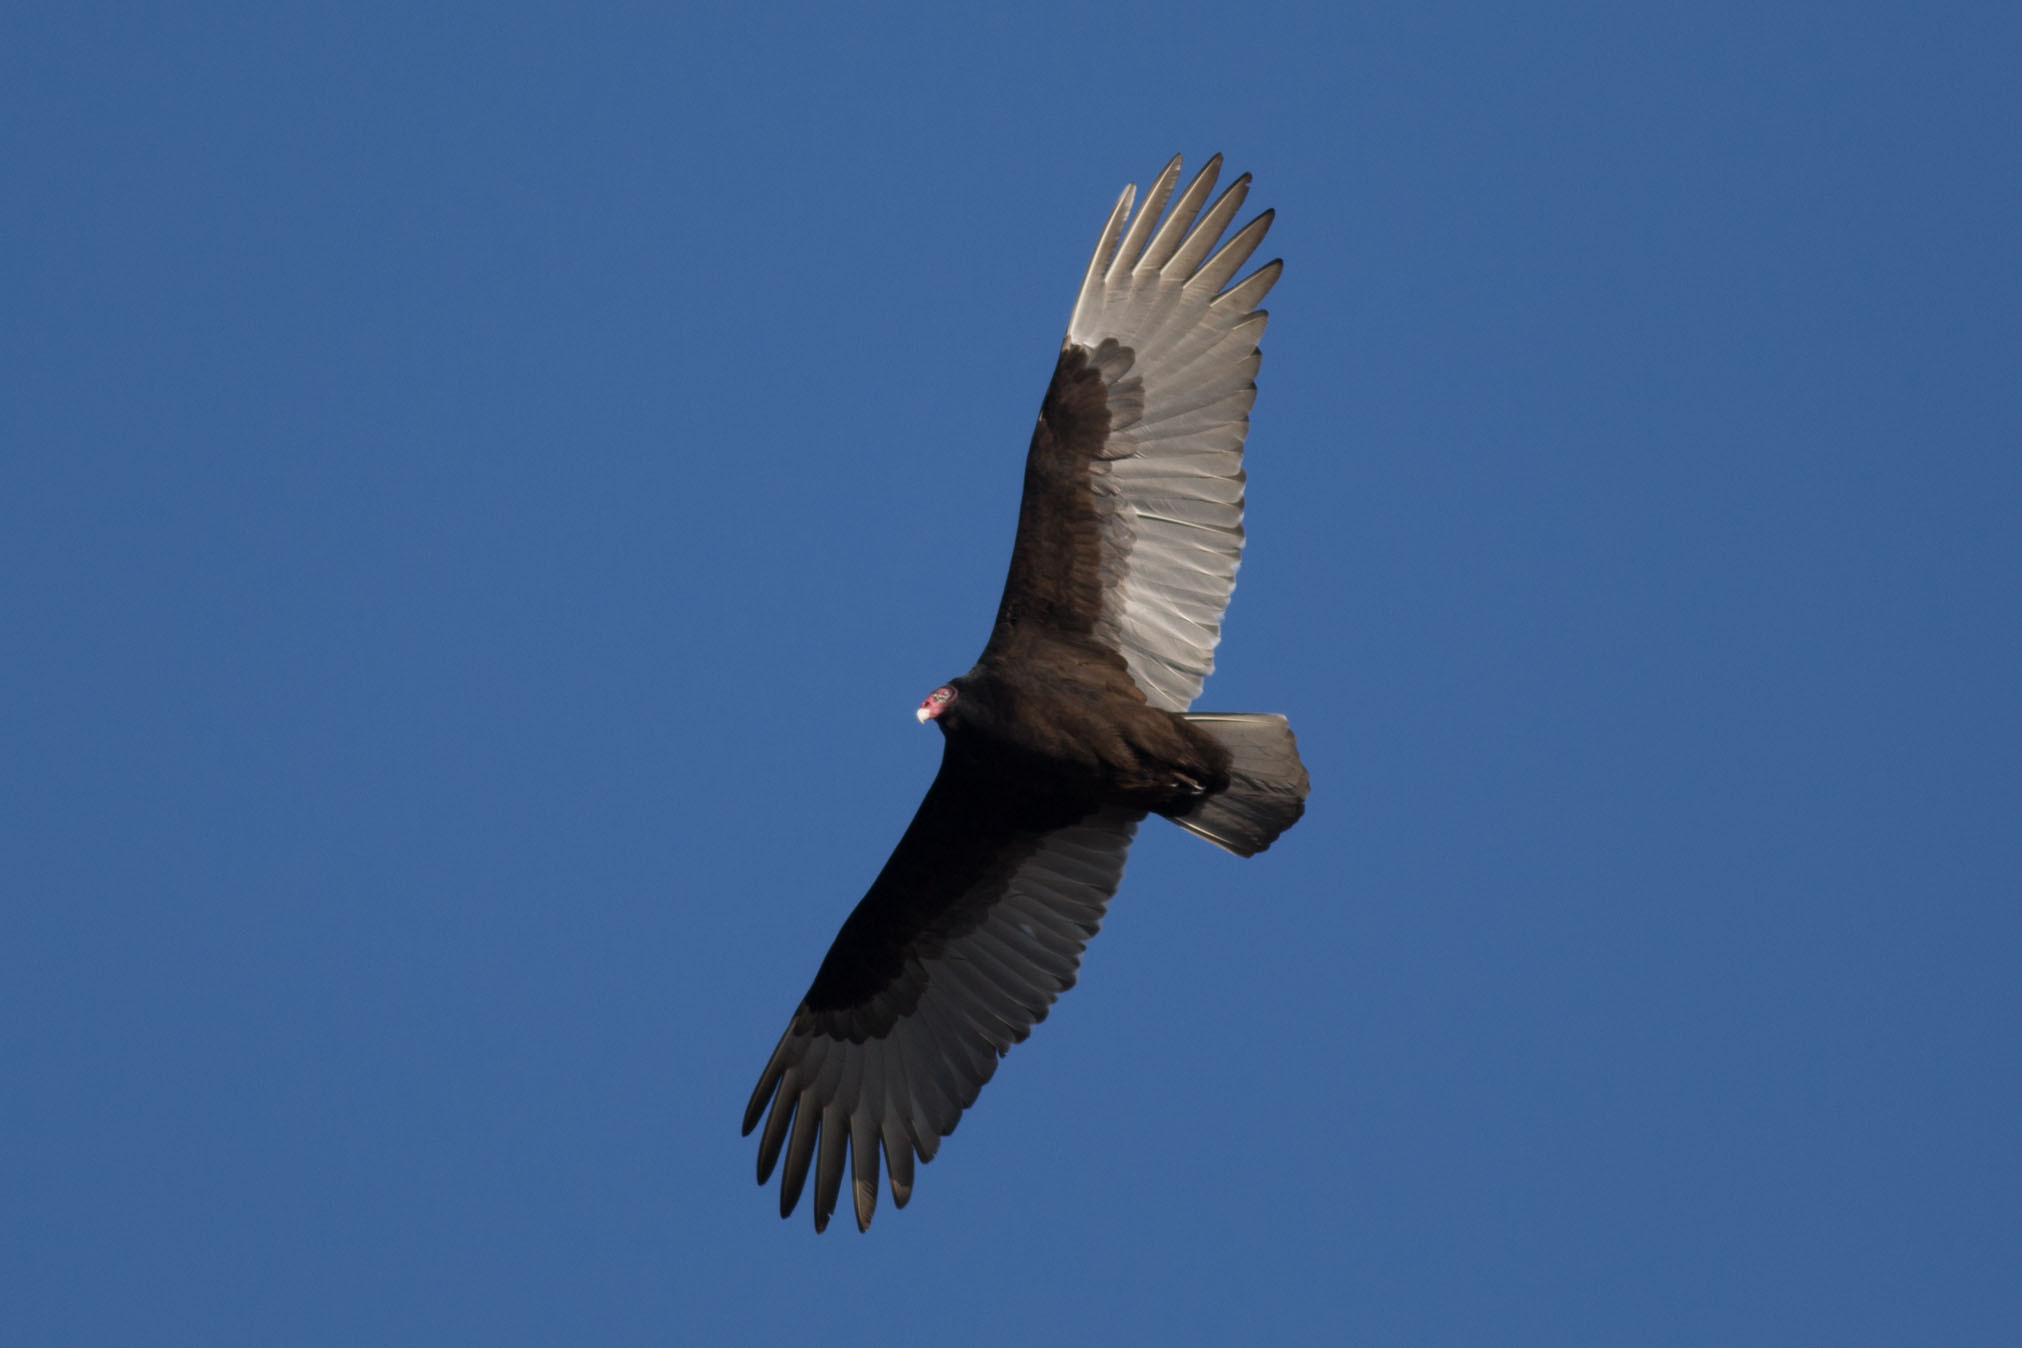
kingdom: Animalia
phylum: Chordata
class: Aves
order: Accipitriformes
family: Cathartidae
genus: Cathartes
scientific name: Cathartes aura
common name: Turkey vulture
